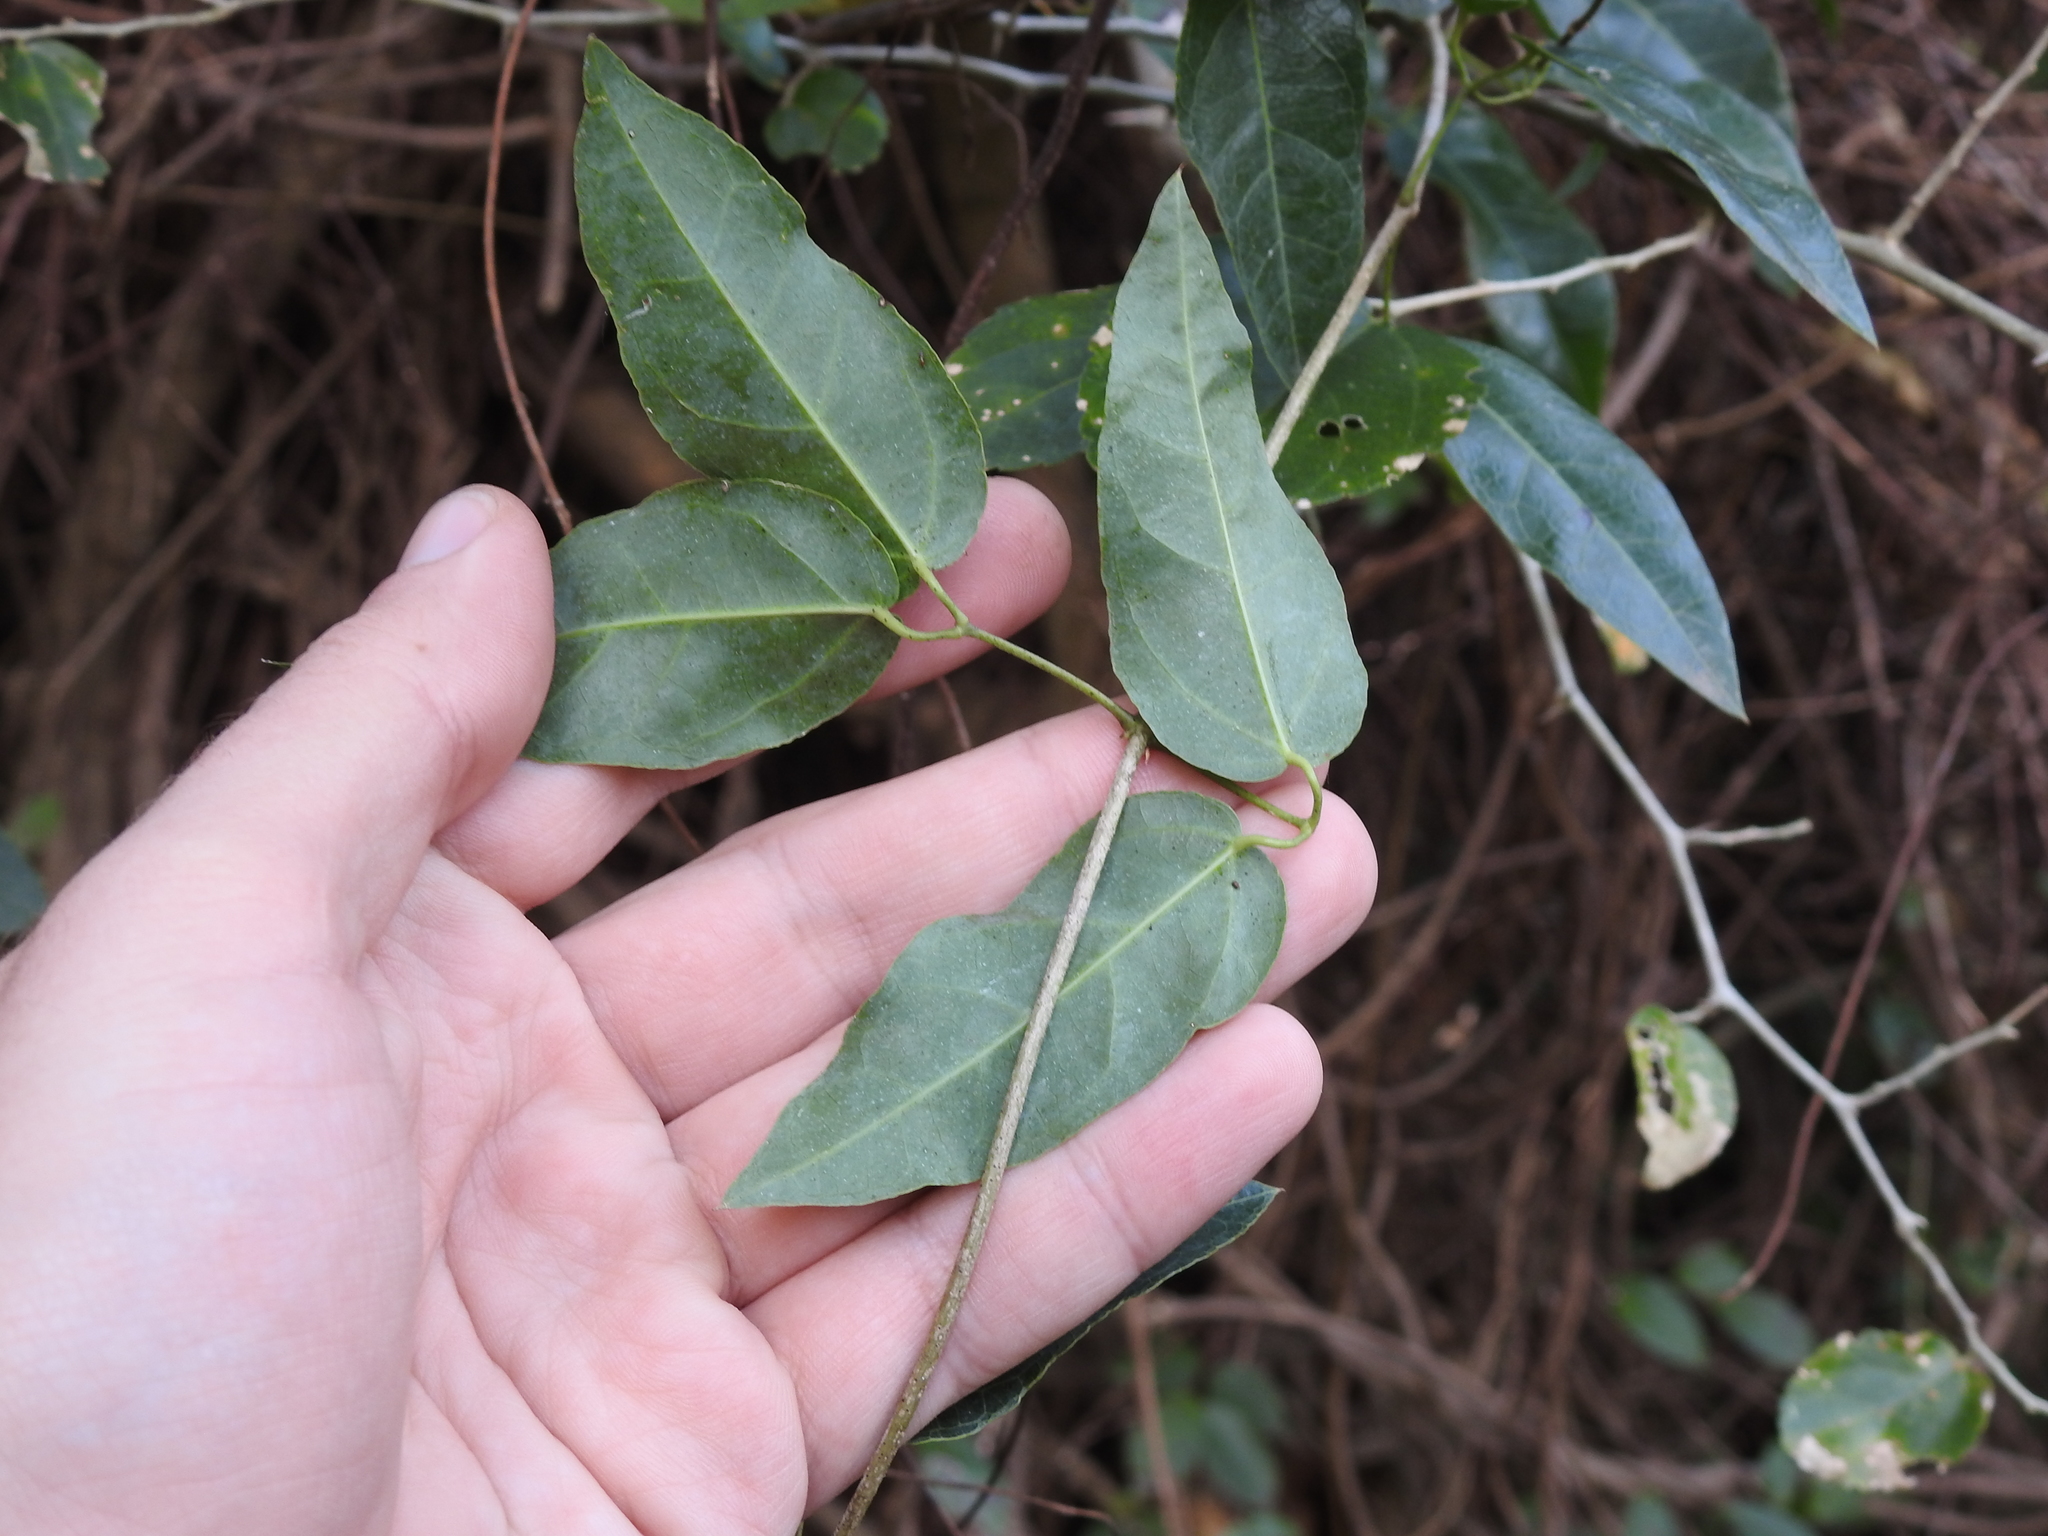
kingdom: Plantae
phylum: Tracheophyta
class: Magnoliopsida
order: Lamiales
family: Bignoniaceae
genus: Dolichandra
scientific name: Dolichandra cynanchoides
